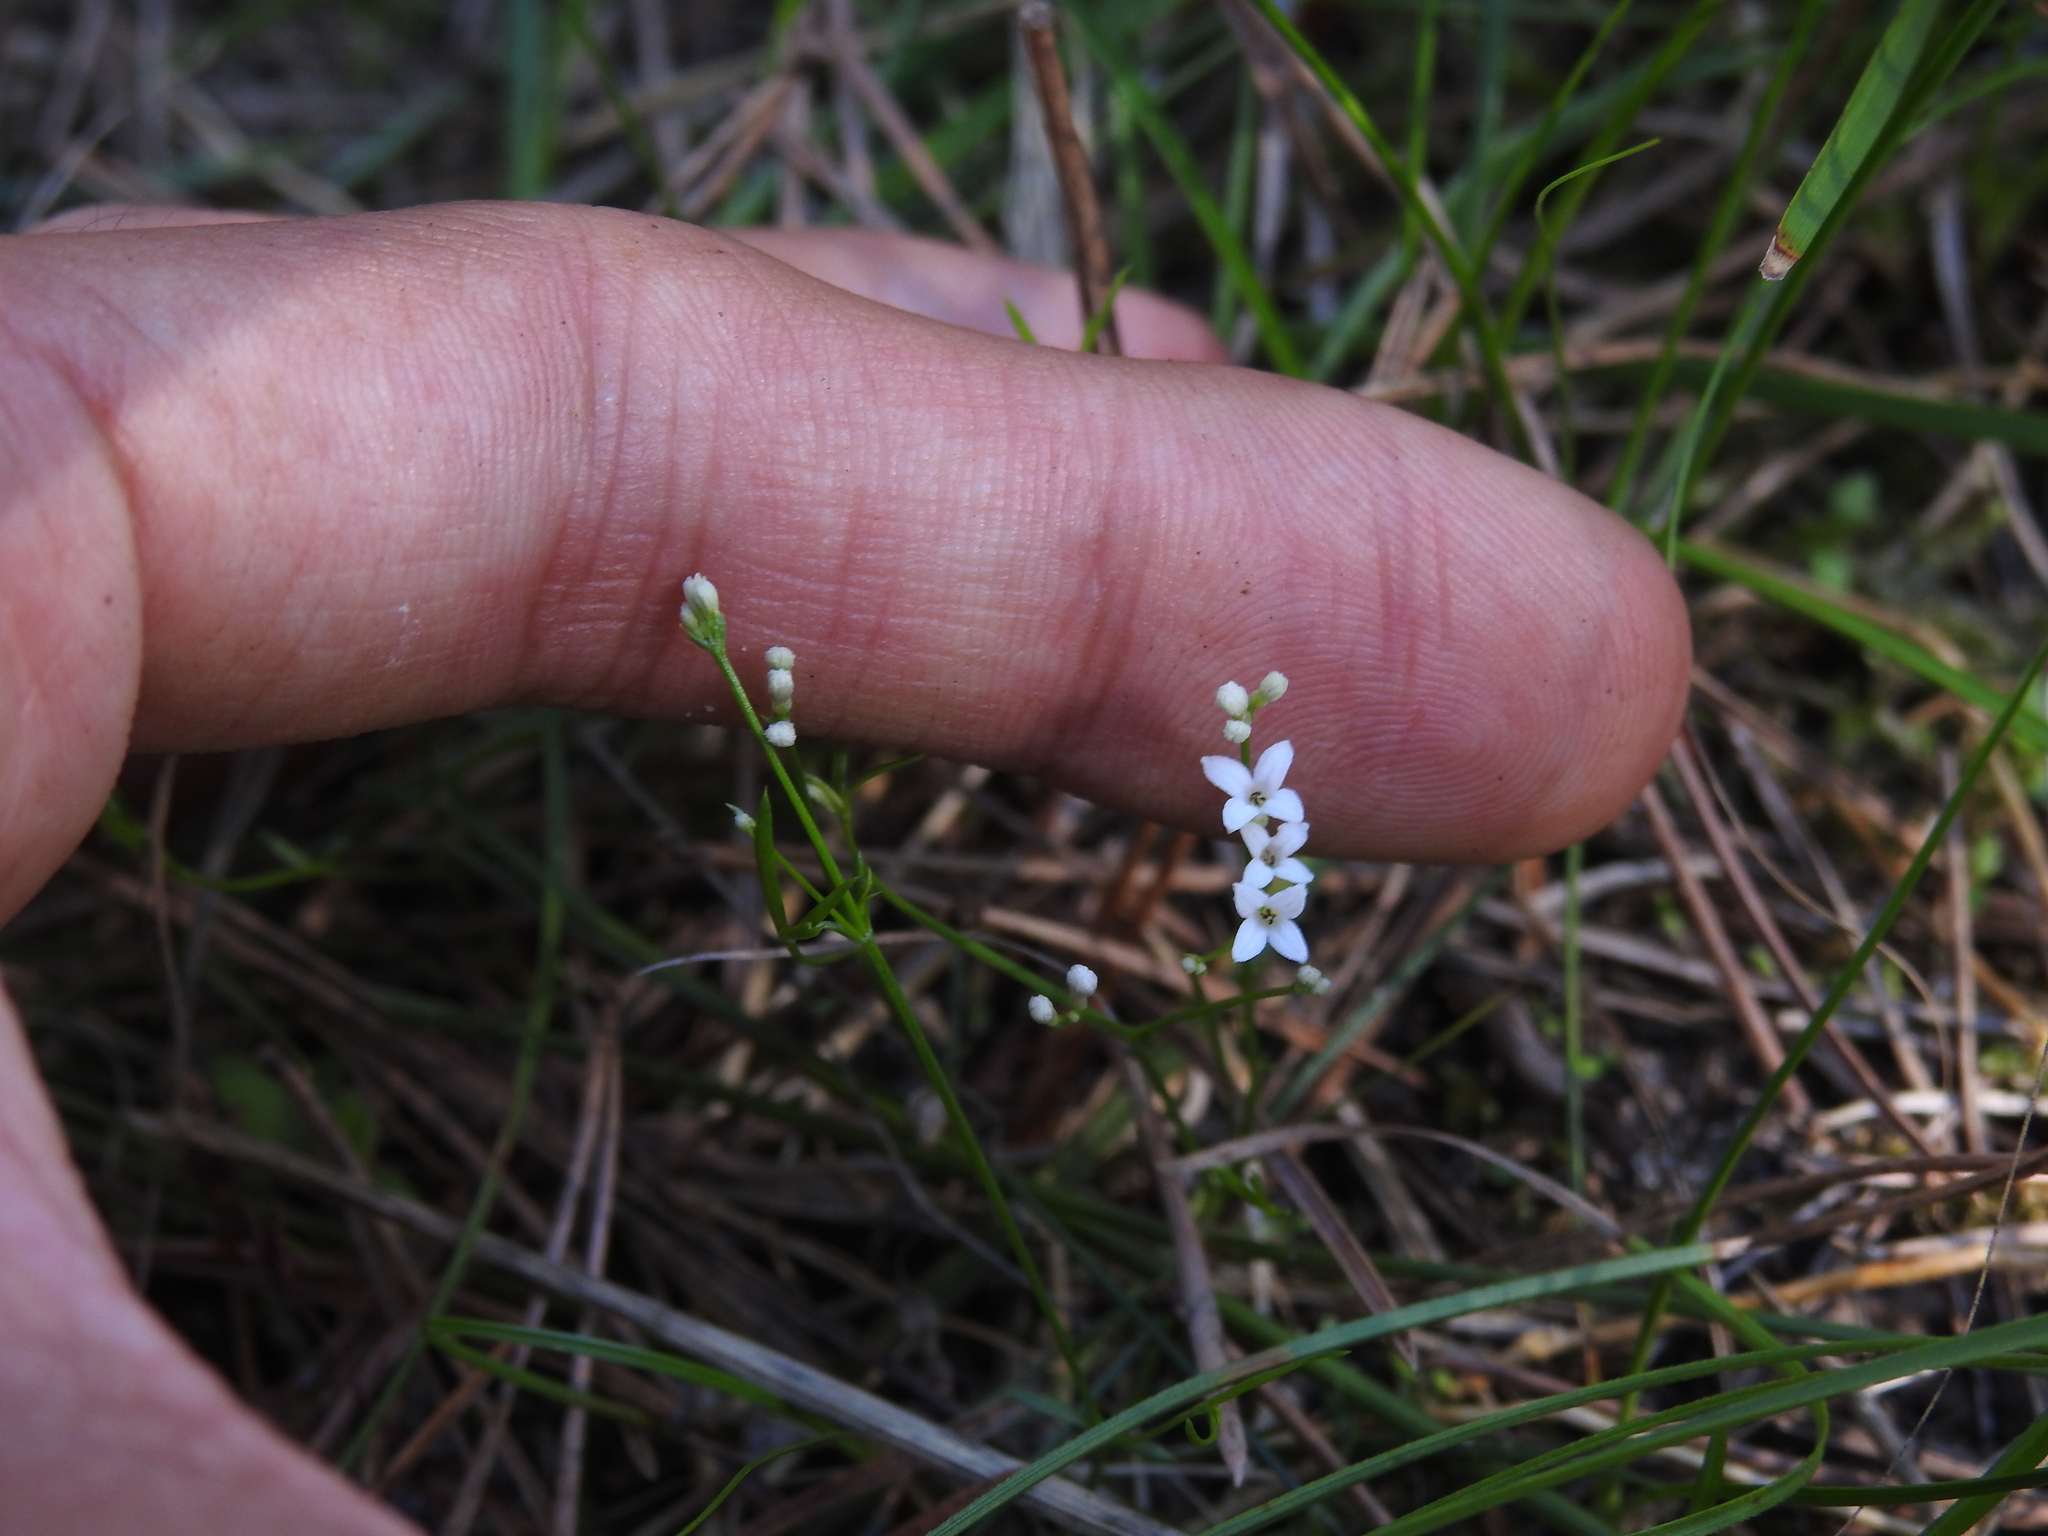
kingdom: Plantae
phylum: Tracheophyta
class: Magnoliopsida
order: Gentianales
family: Rubiaceae
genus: Cynanchica
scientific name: Cynanchica pyrenaica
